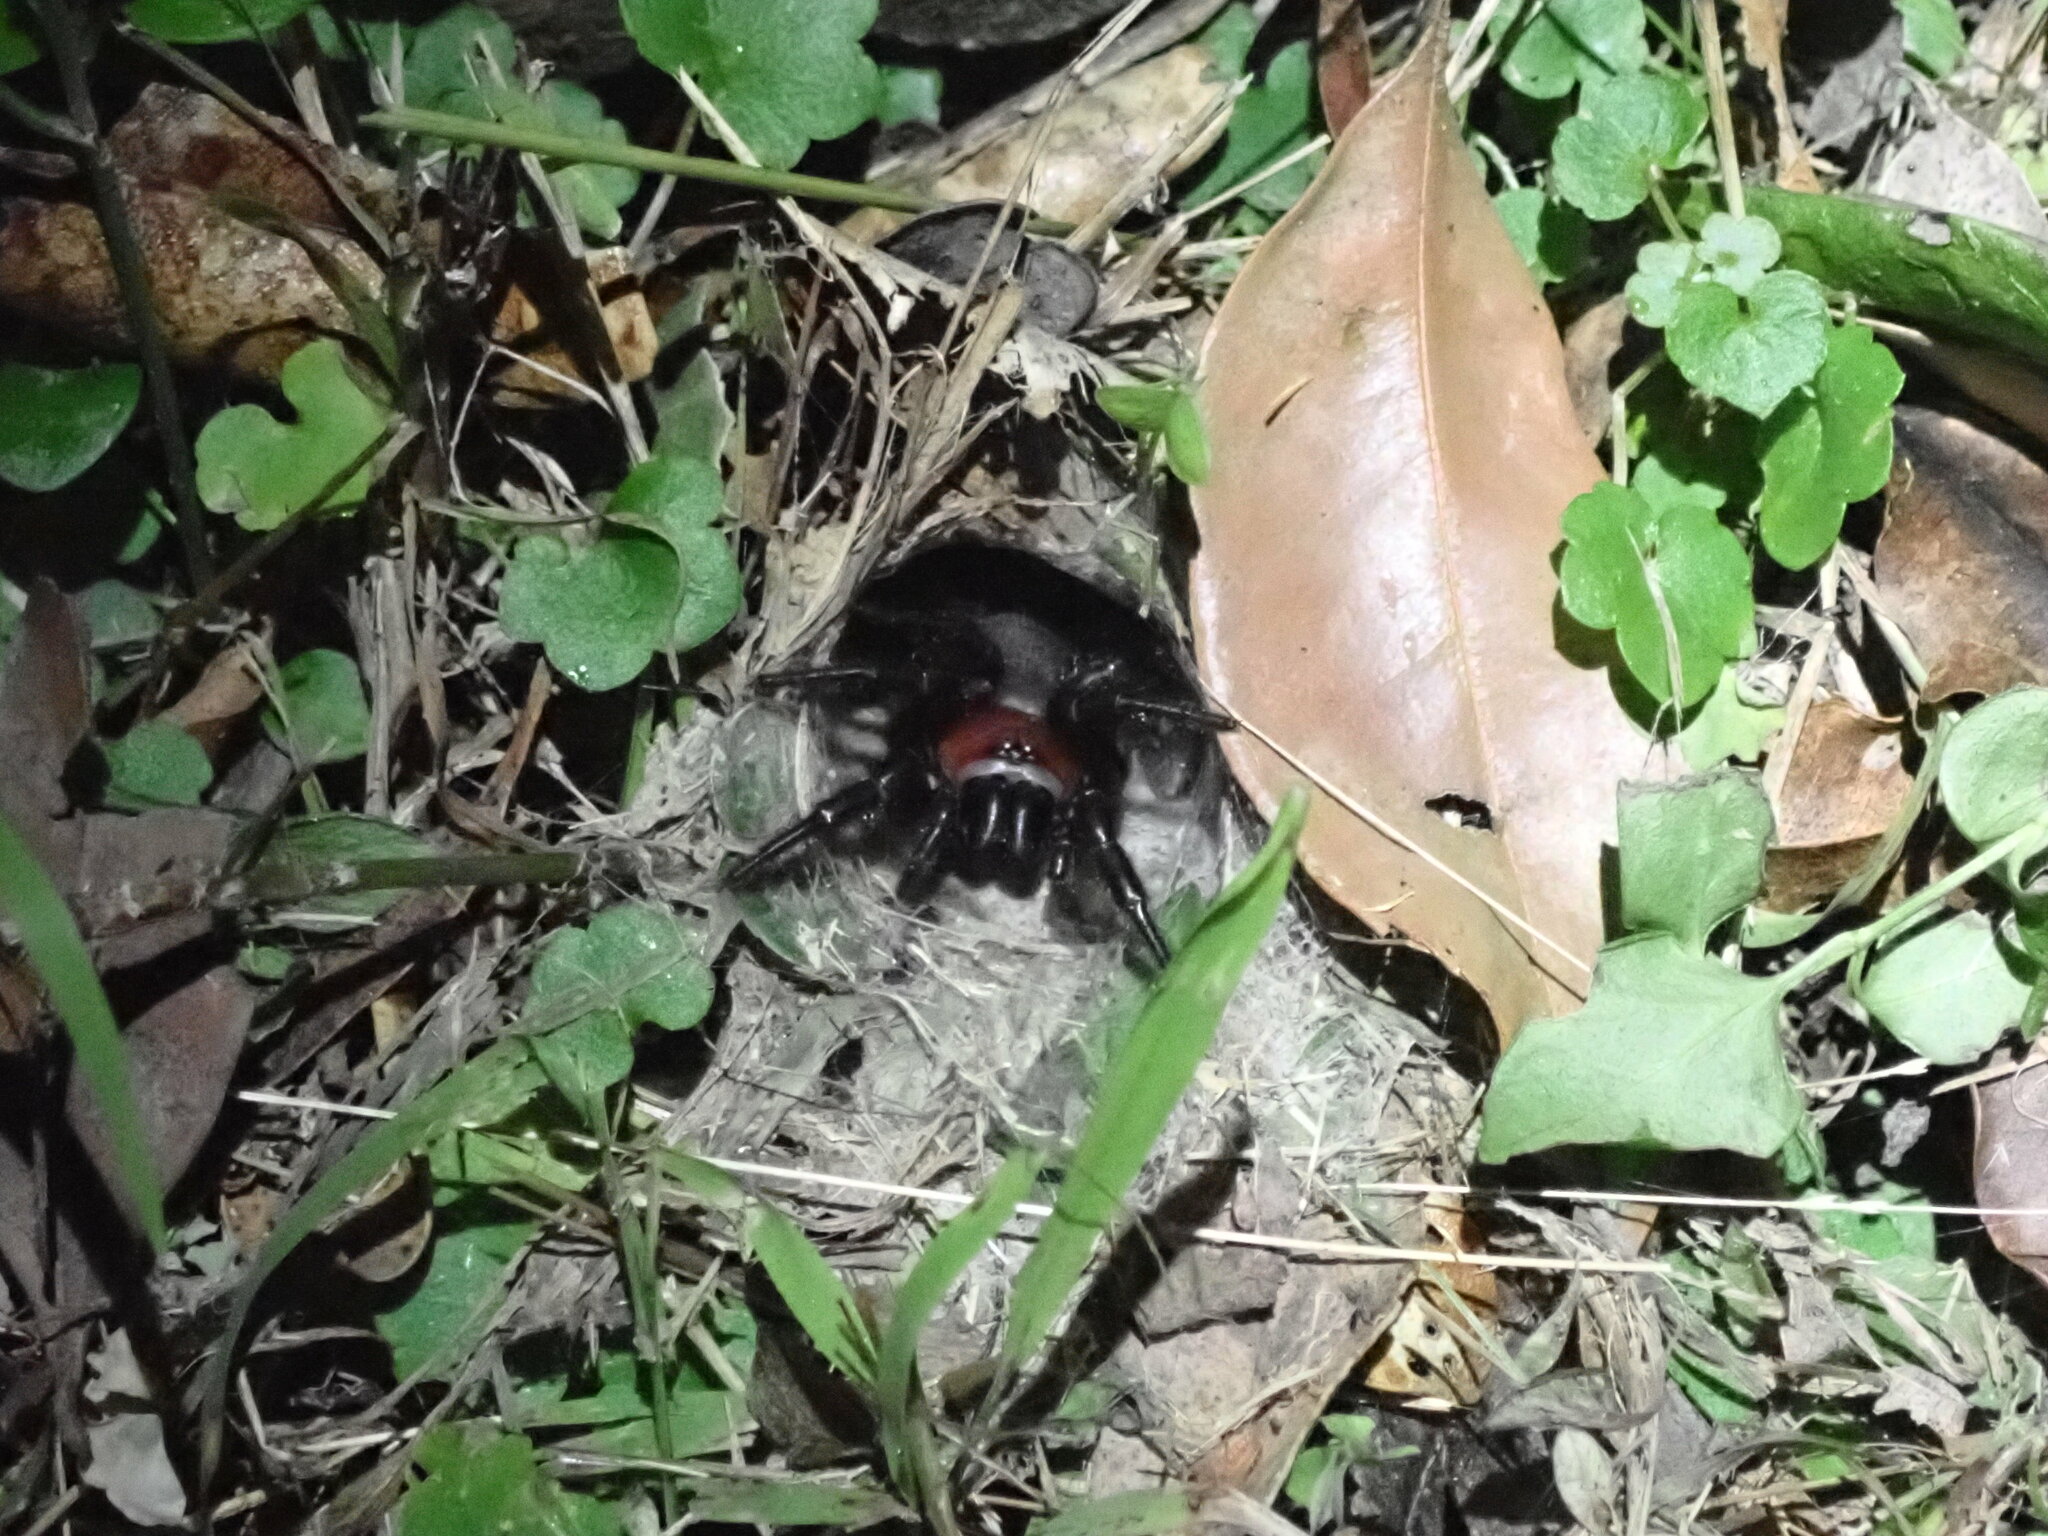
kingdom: Animalia
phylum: Arthropoda
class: Arachnida
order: Araneae
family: Porrhothelidae
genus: Porrhothele
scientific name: Porrhothele antipodiana
